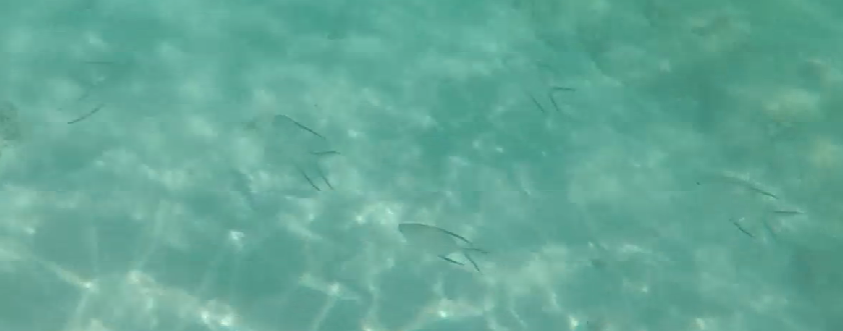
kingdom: Animalia
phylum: Chordata
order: Perciformes
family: Carangidae
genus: Trachinotus
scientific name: Trachinotus goodei
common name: Palometa
